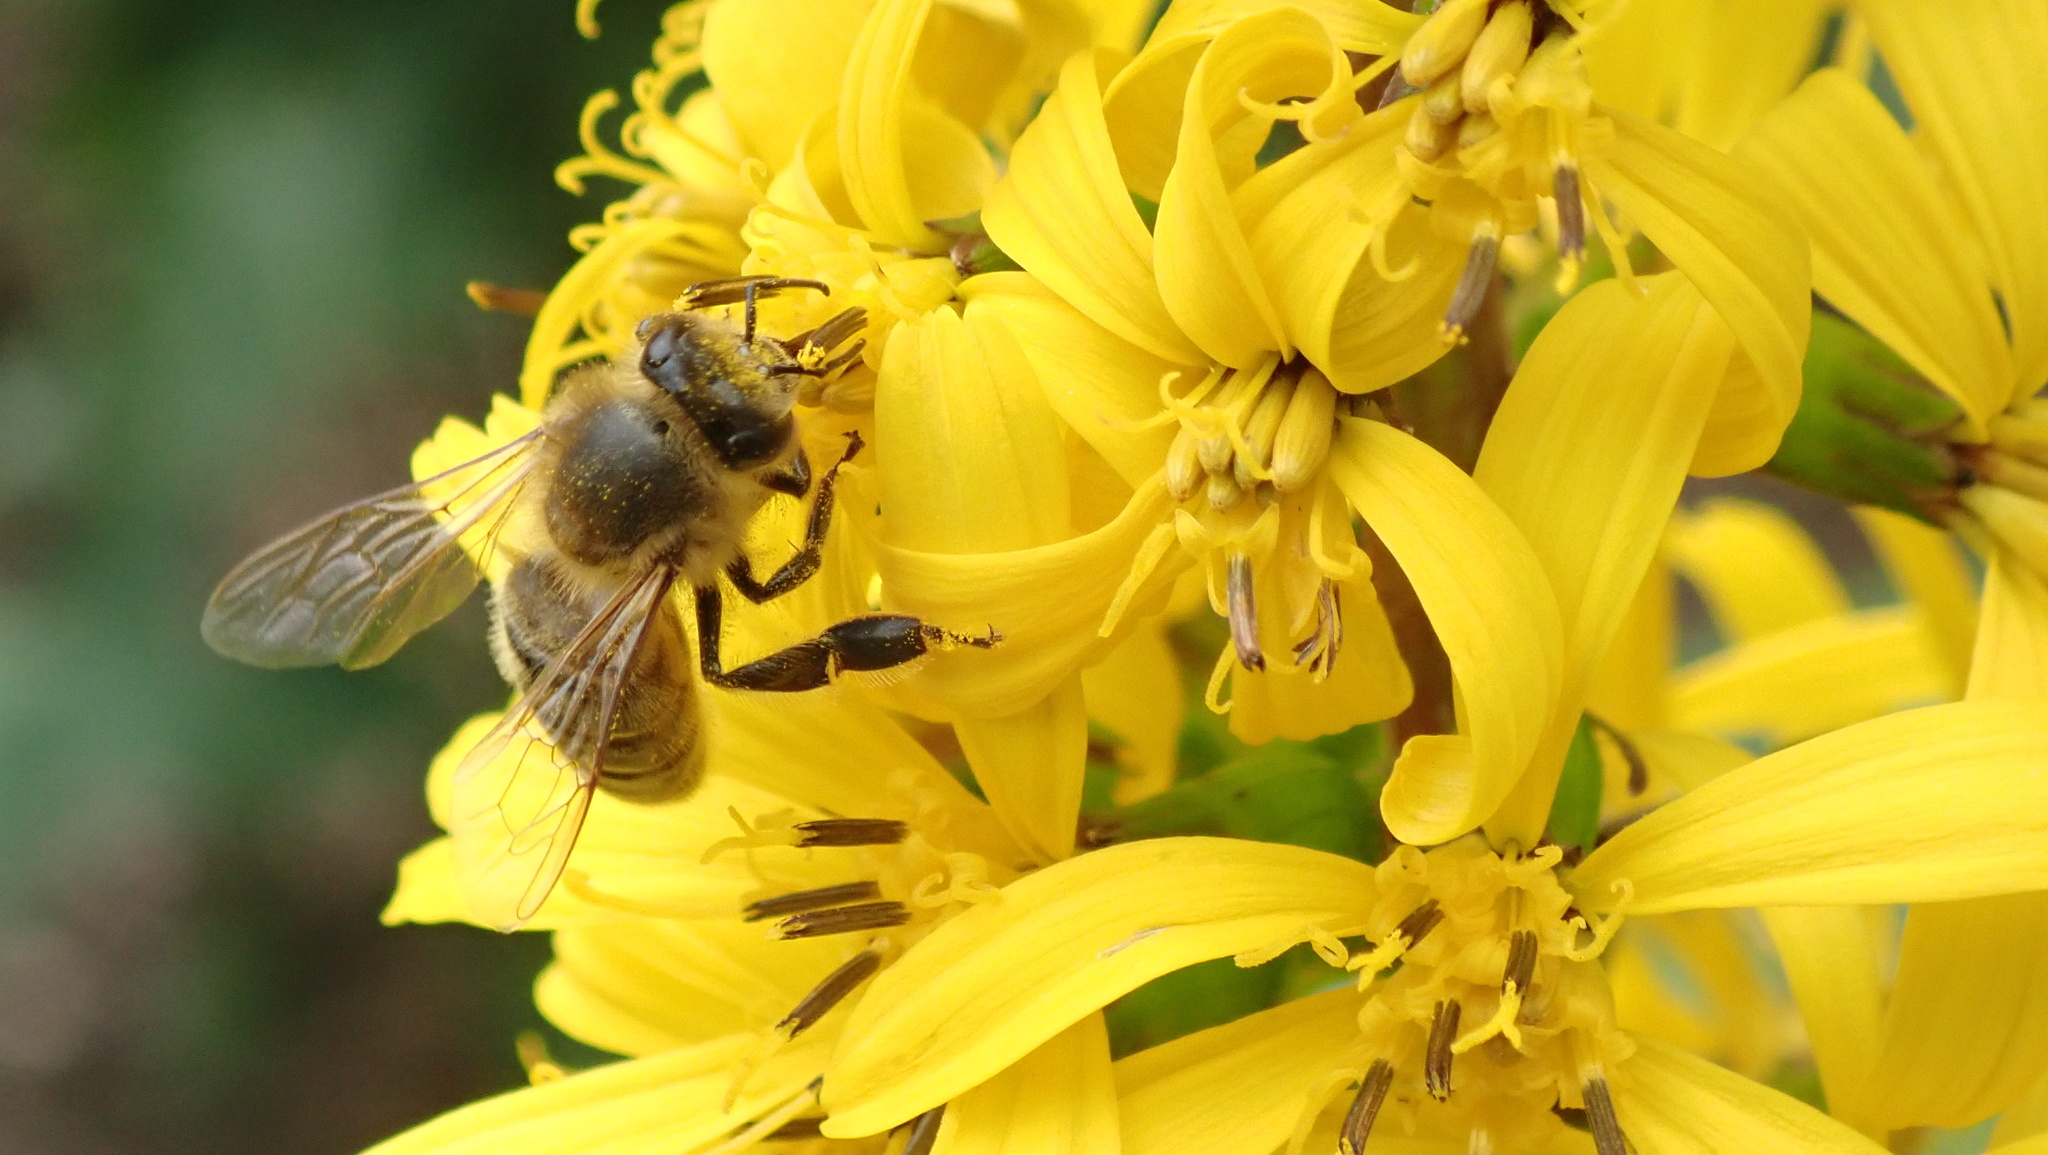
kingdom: Animalia
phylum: Arthropoda
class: Insecta
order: Hymenoptera
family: Apidae
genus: Apis
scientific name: Apis mellifera
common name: Honey bee
